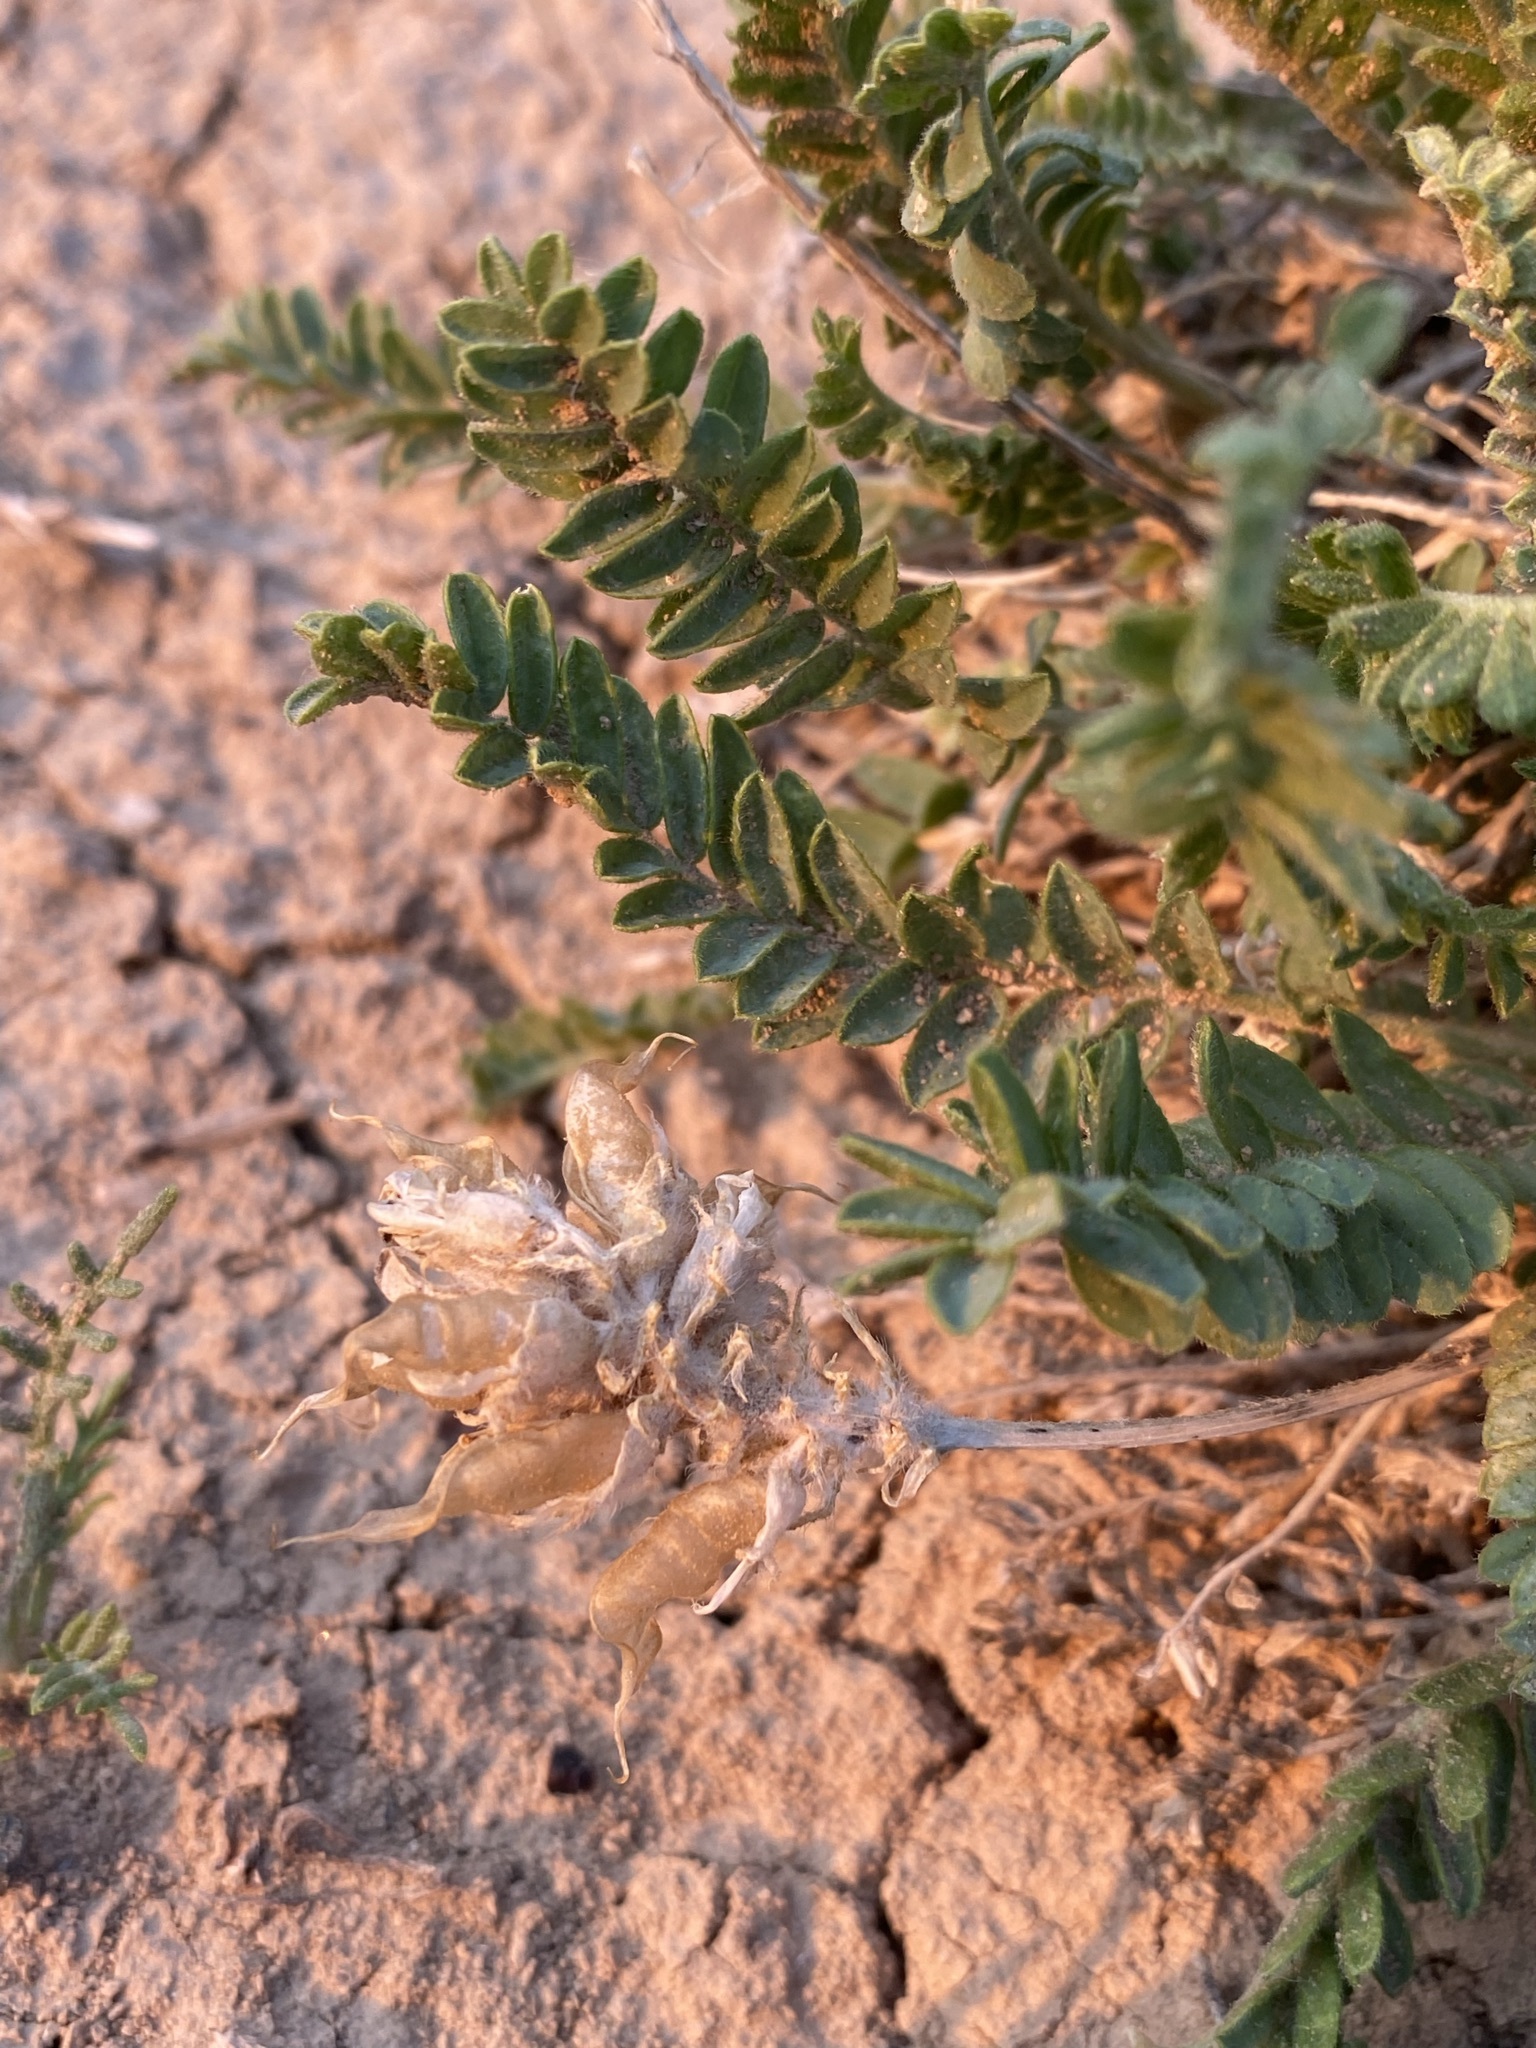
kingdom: Plantae
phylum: Tracheophyta
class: Magnoliopsida
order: Fabales
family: Fabaceae
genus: Oxytropis
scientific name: Oxytropis borealis
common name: Boreal locoweed
